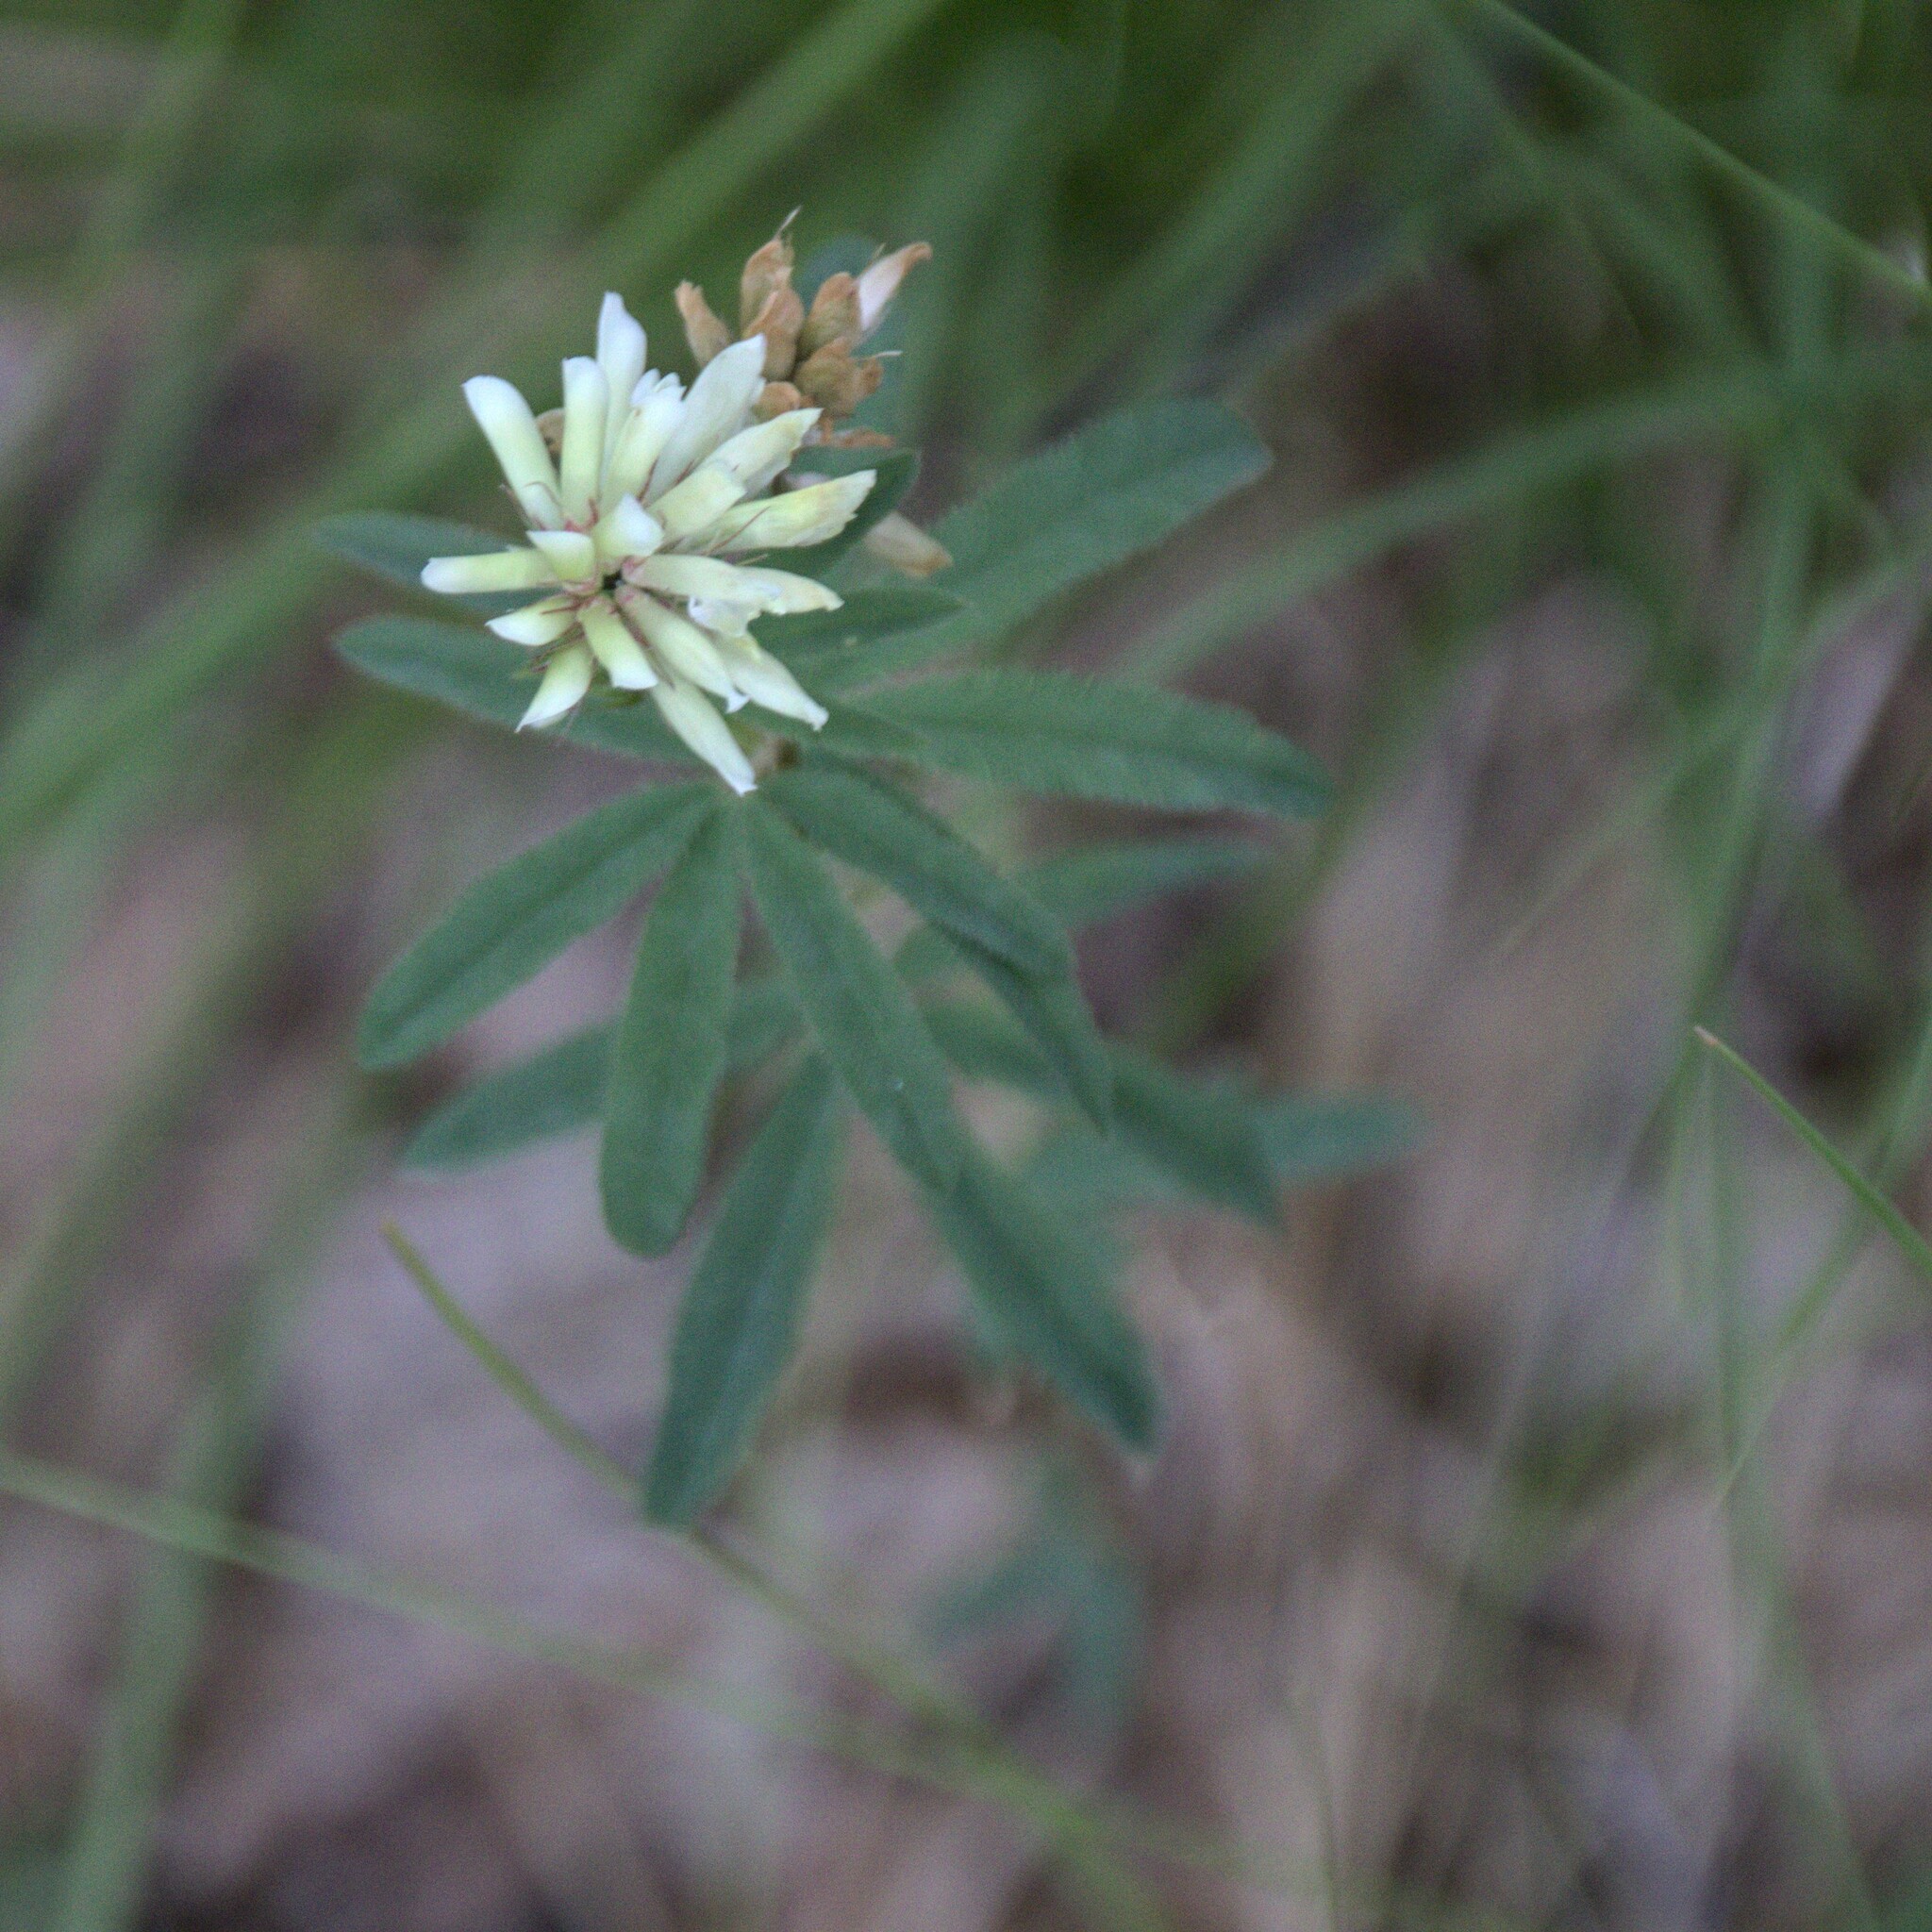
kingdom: Plantae
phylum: Tracheophyta
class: Magnoliopsida
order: Fabales
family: Fabaceae
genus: Trifolium
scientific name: Trifolium lupinaster
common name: Lupine clover
